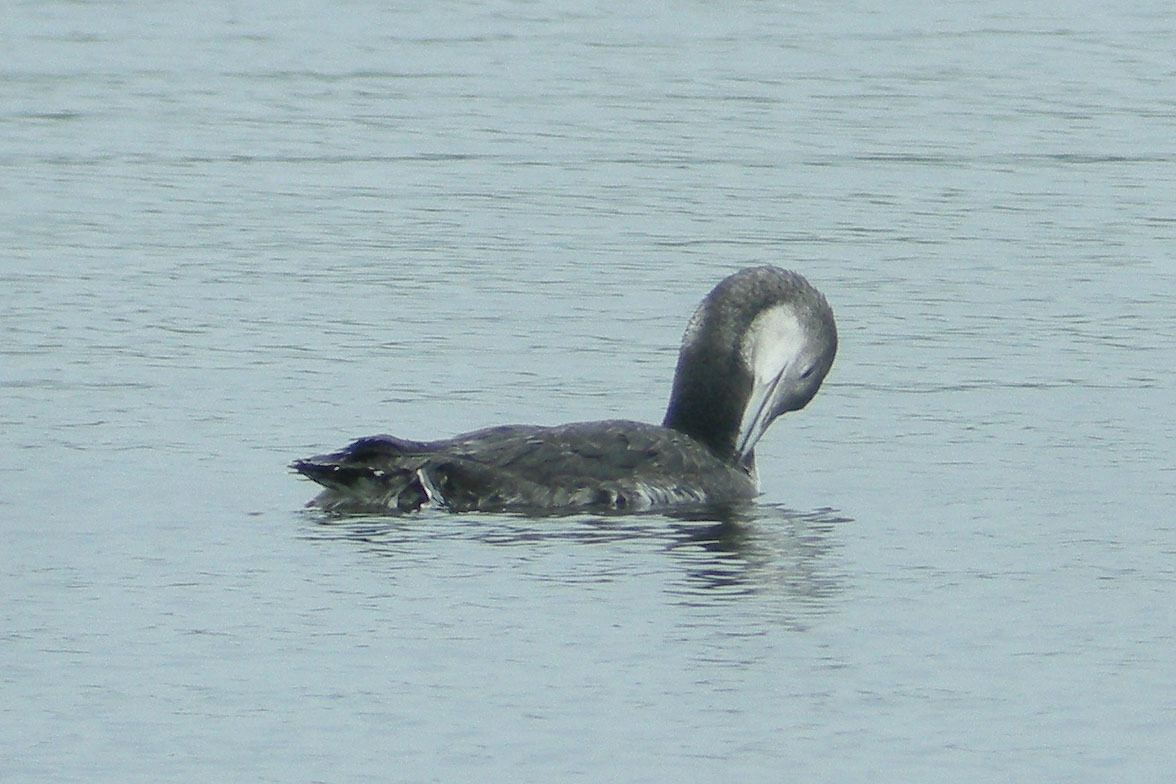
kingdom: Animalia
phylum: Chordata
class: Aves
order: Gaviiformes
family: Gaviidae
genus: Gavia
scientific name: Gavia immer
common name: Common loon
